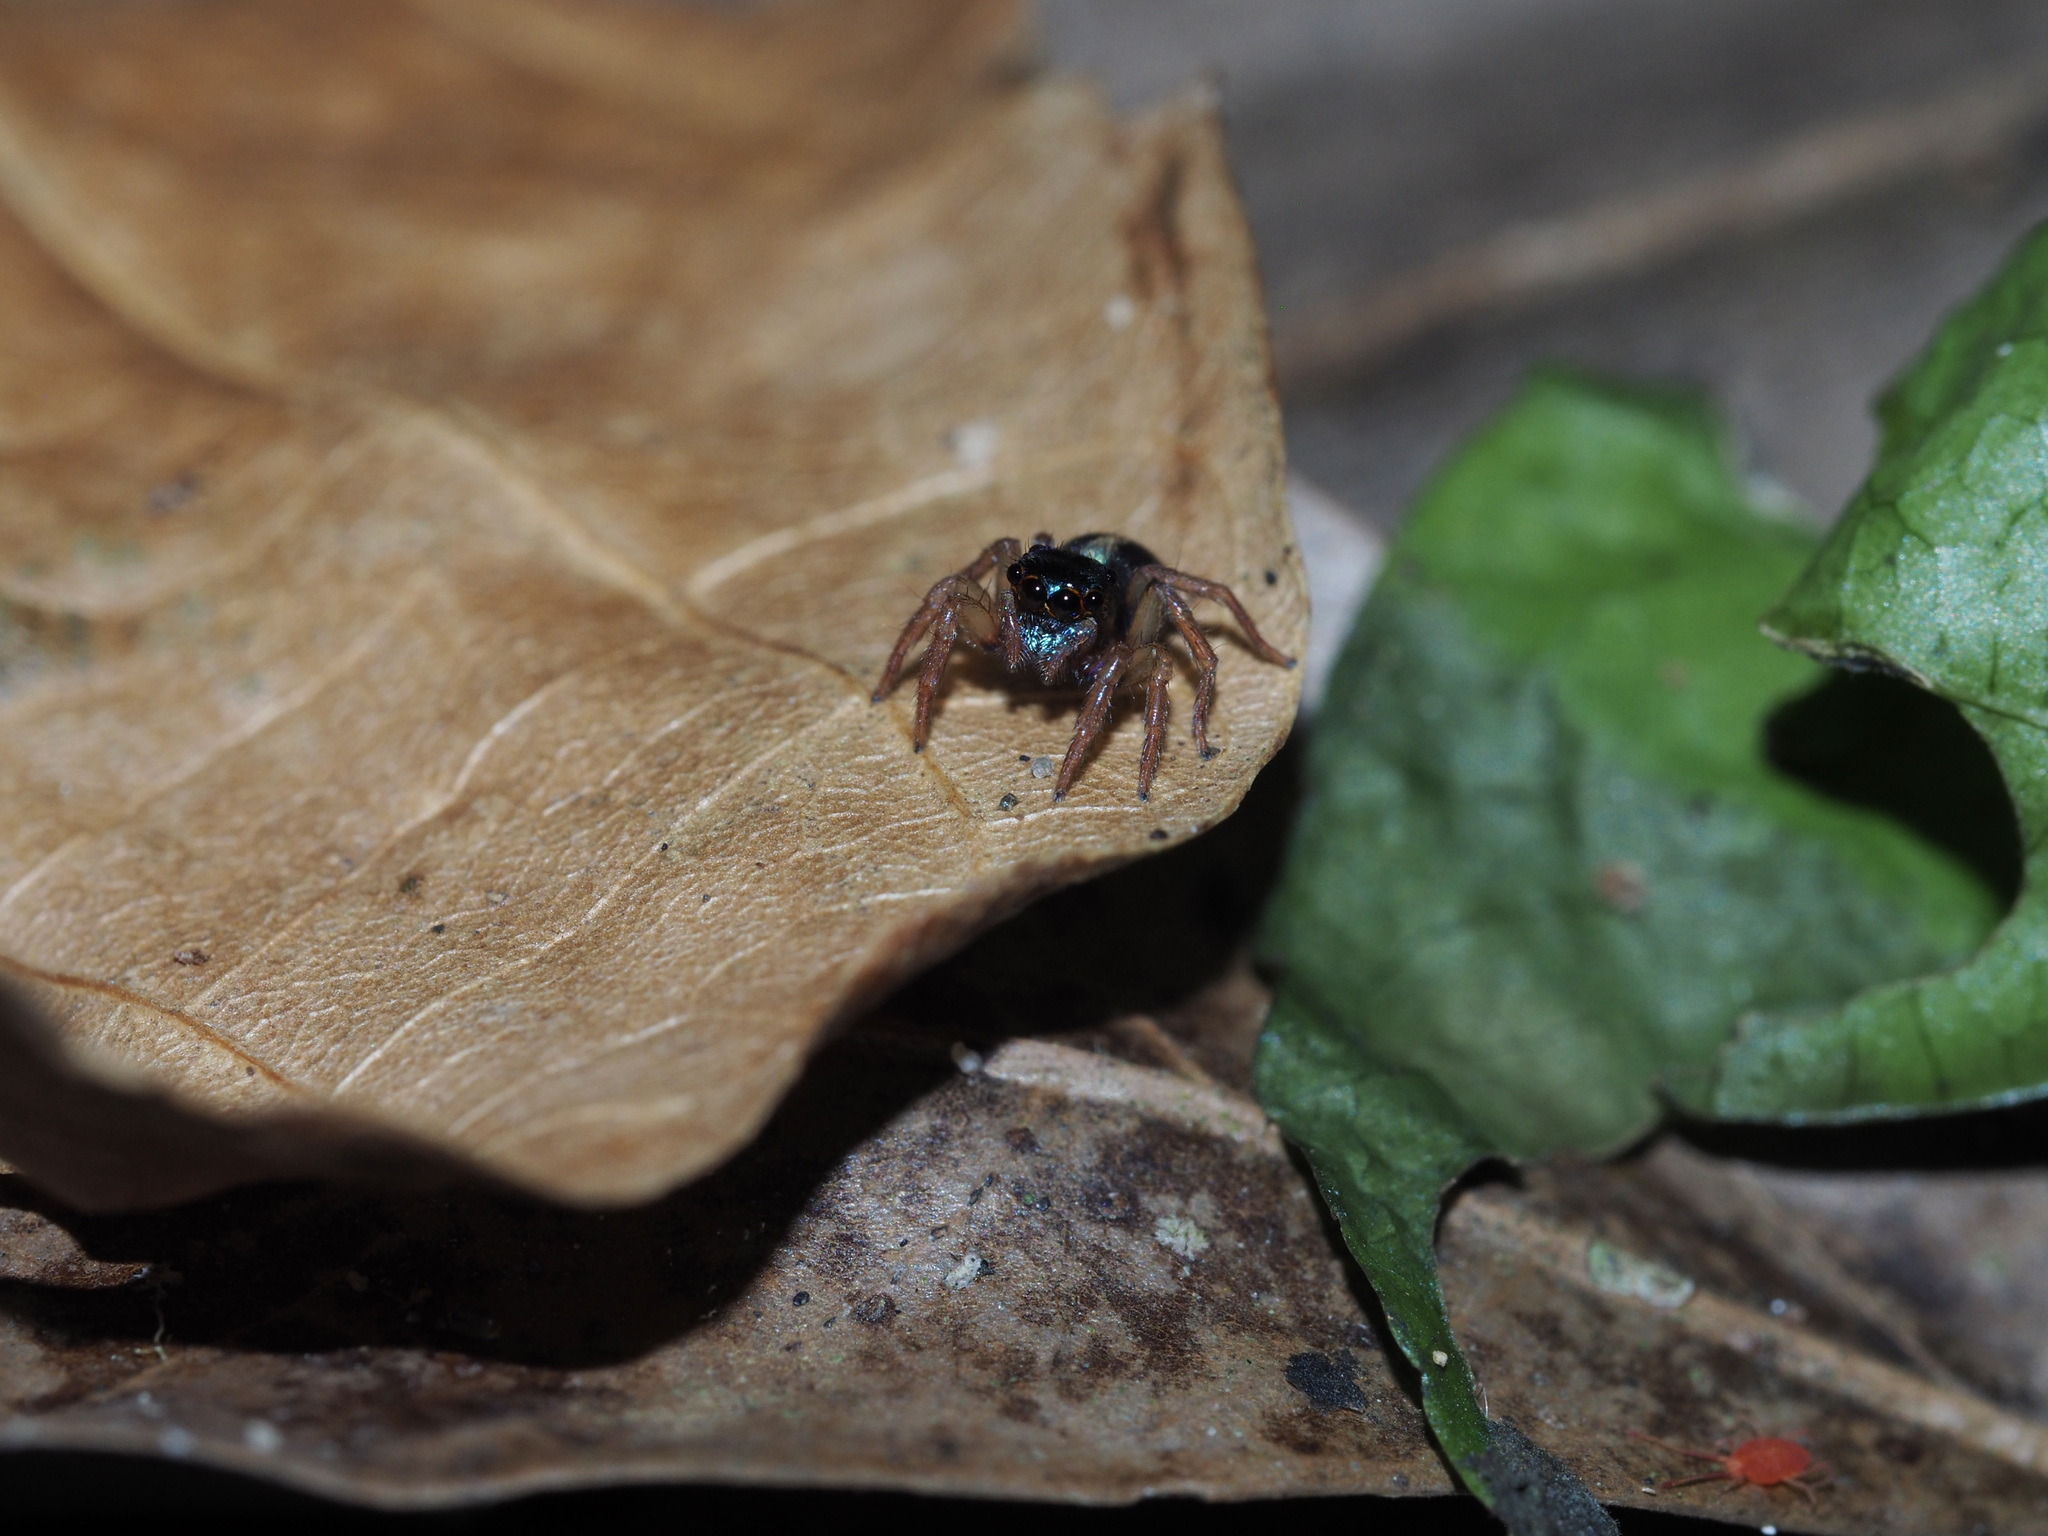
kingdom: Animalia
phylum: Arthropoda
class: Arachnida
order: Araneae
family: Salticidae
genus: Anasaitis
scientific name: Anasaitis canalis
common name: Jumping spiders
